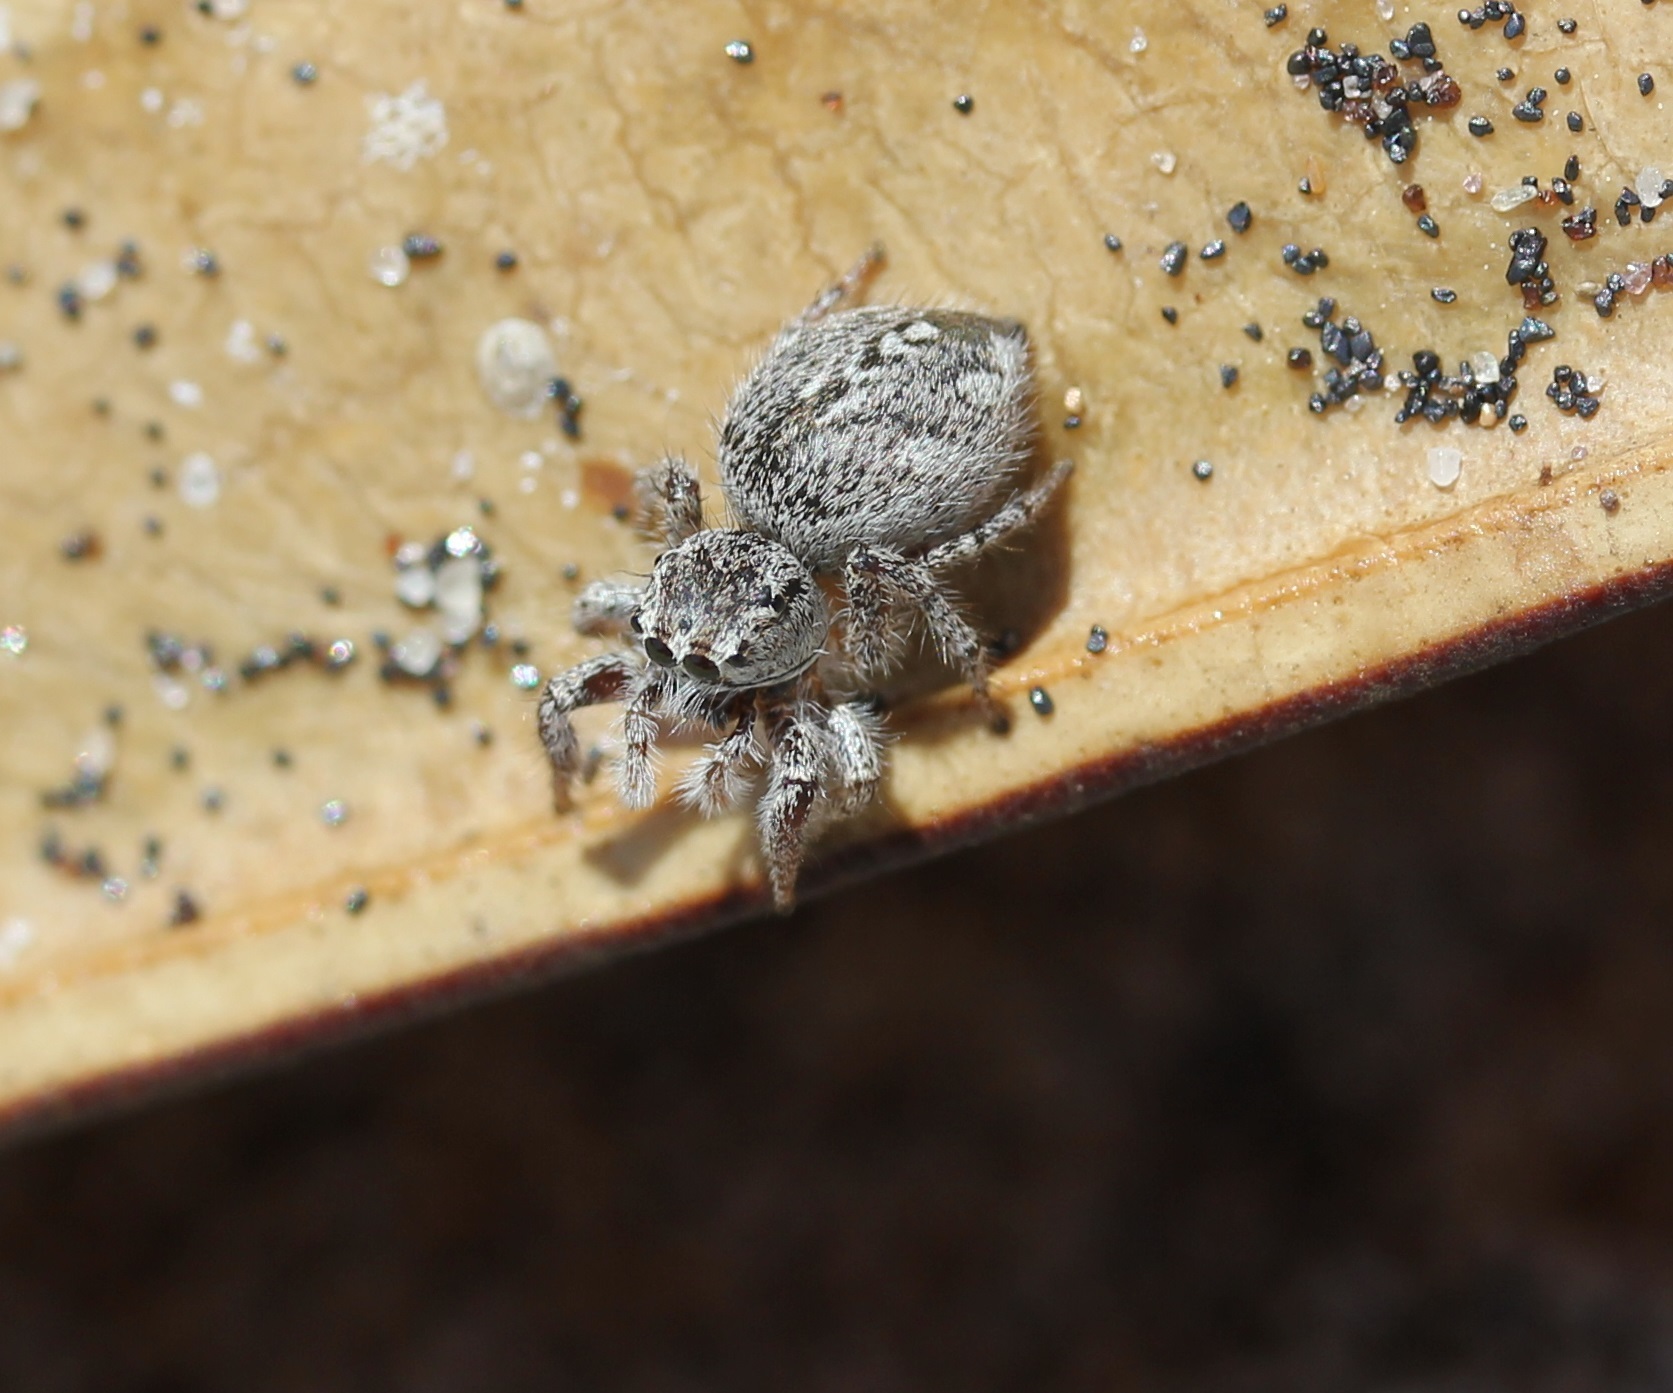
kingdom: Animalia
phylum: Arthropoda
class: Arachnida
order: Araneae
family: Salticidae
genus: Habronattus
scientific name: Habronattus agilis
